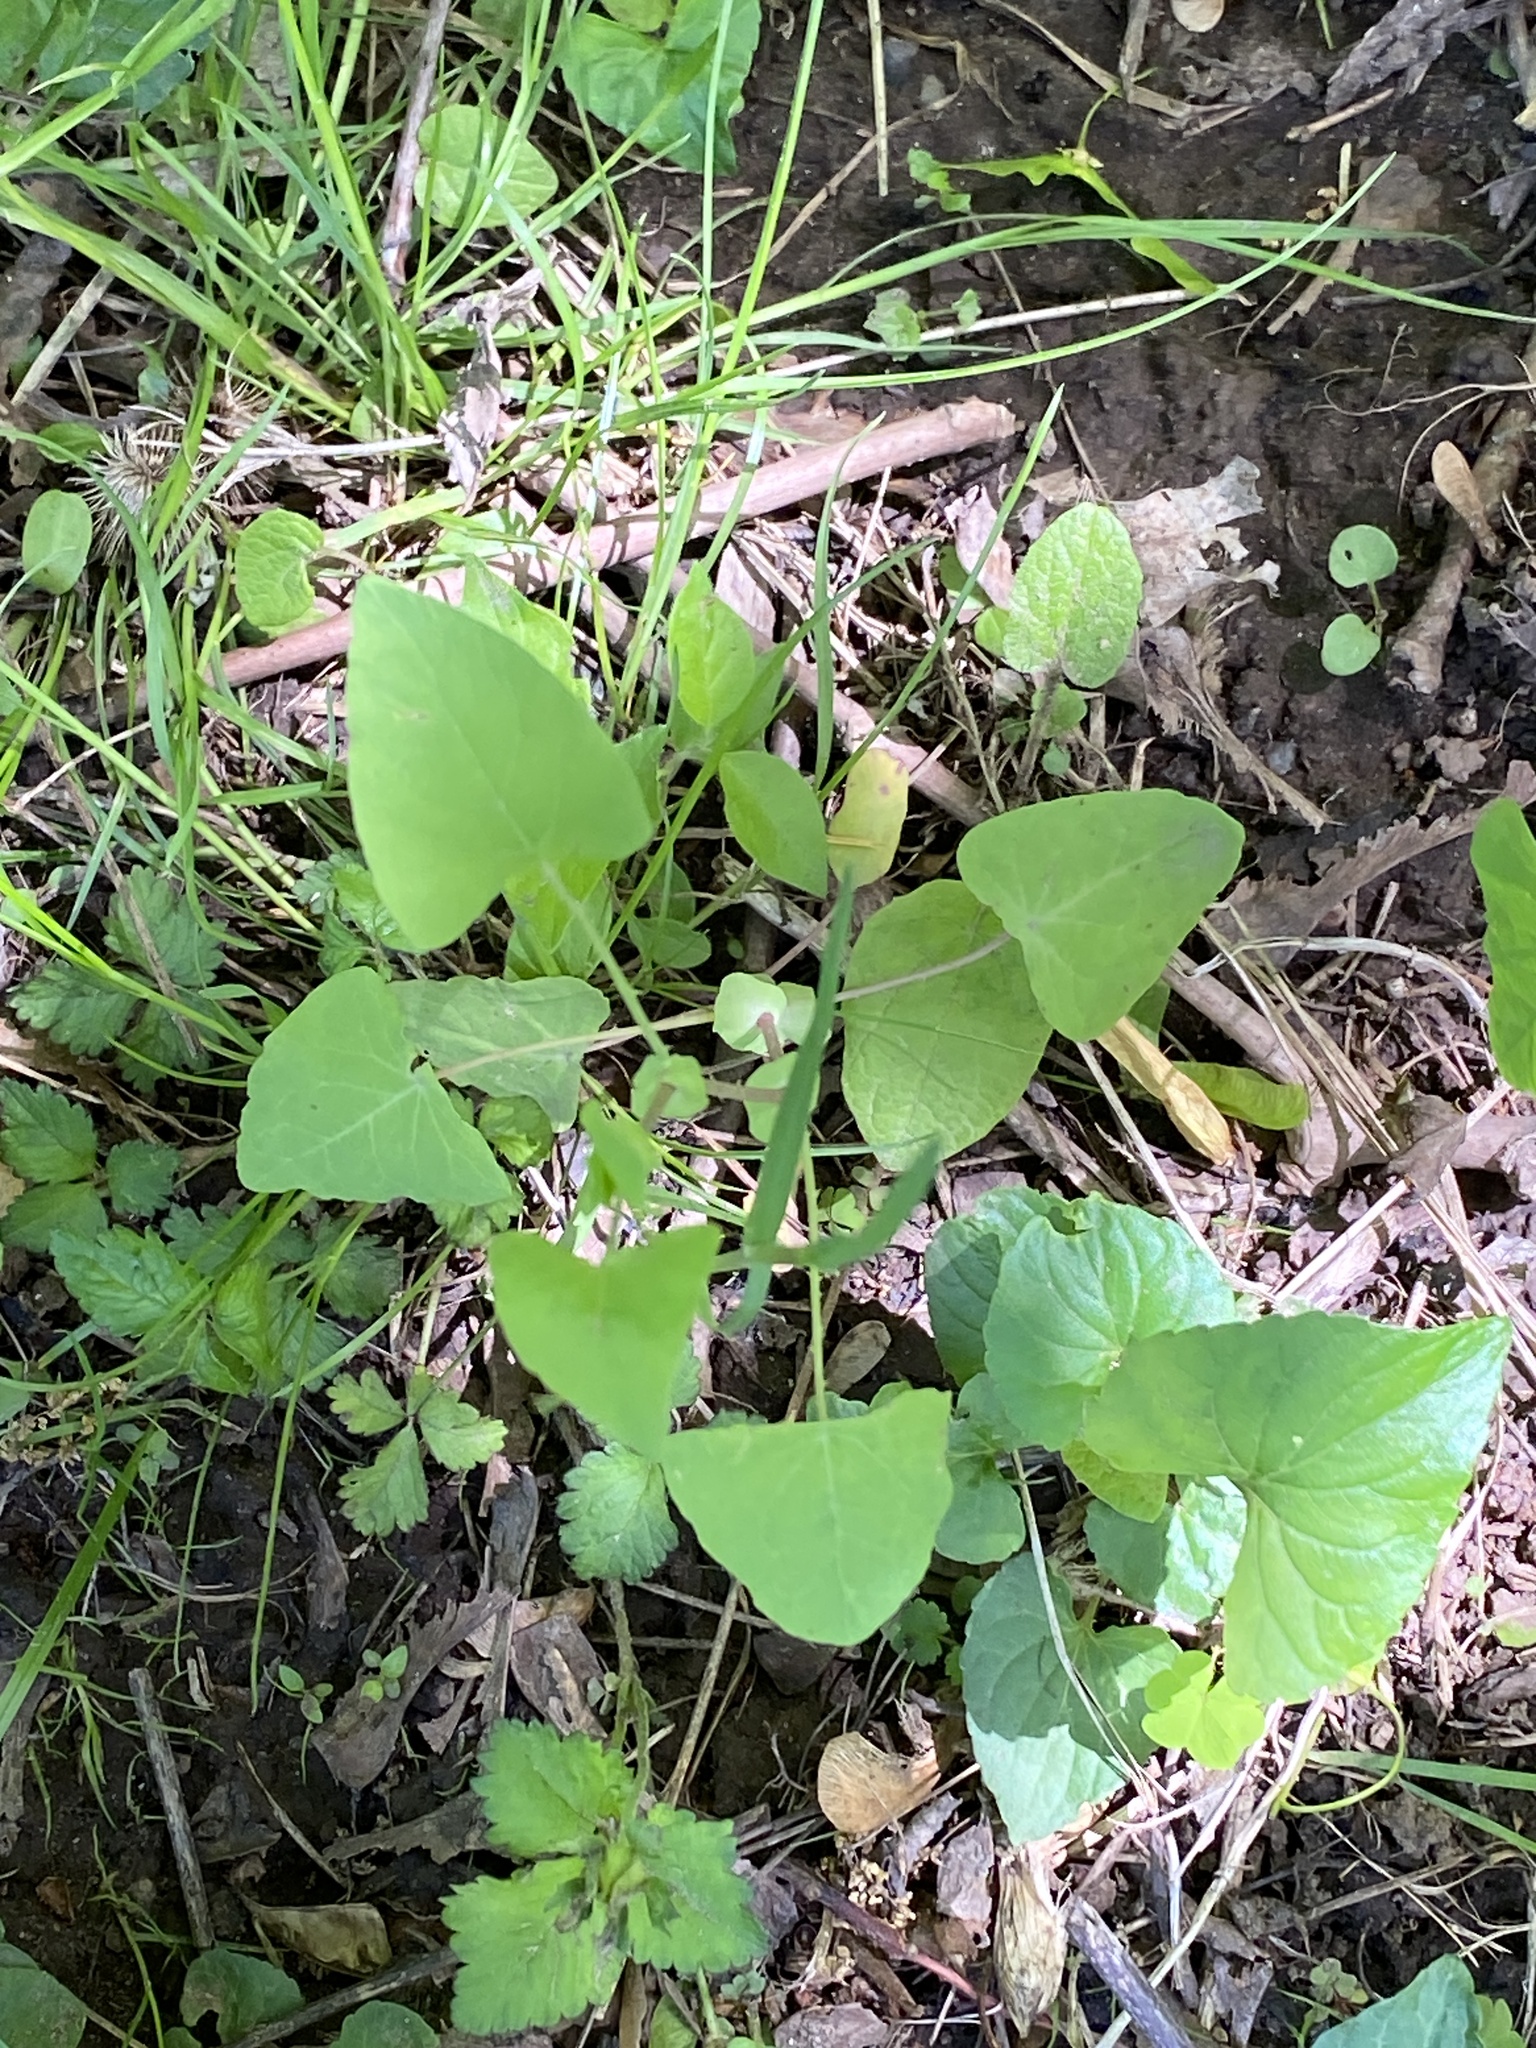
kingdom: Plantae
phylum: Tracheophyta
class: Magnoliopsida
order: Caryophyllales
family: Polygonaceae
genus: Persicaria
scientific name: Persicaria perfoliata
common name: Asiatic tearthumb
